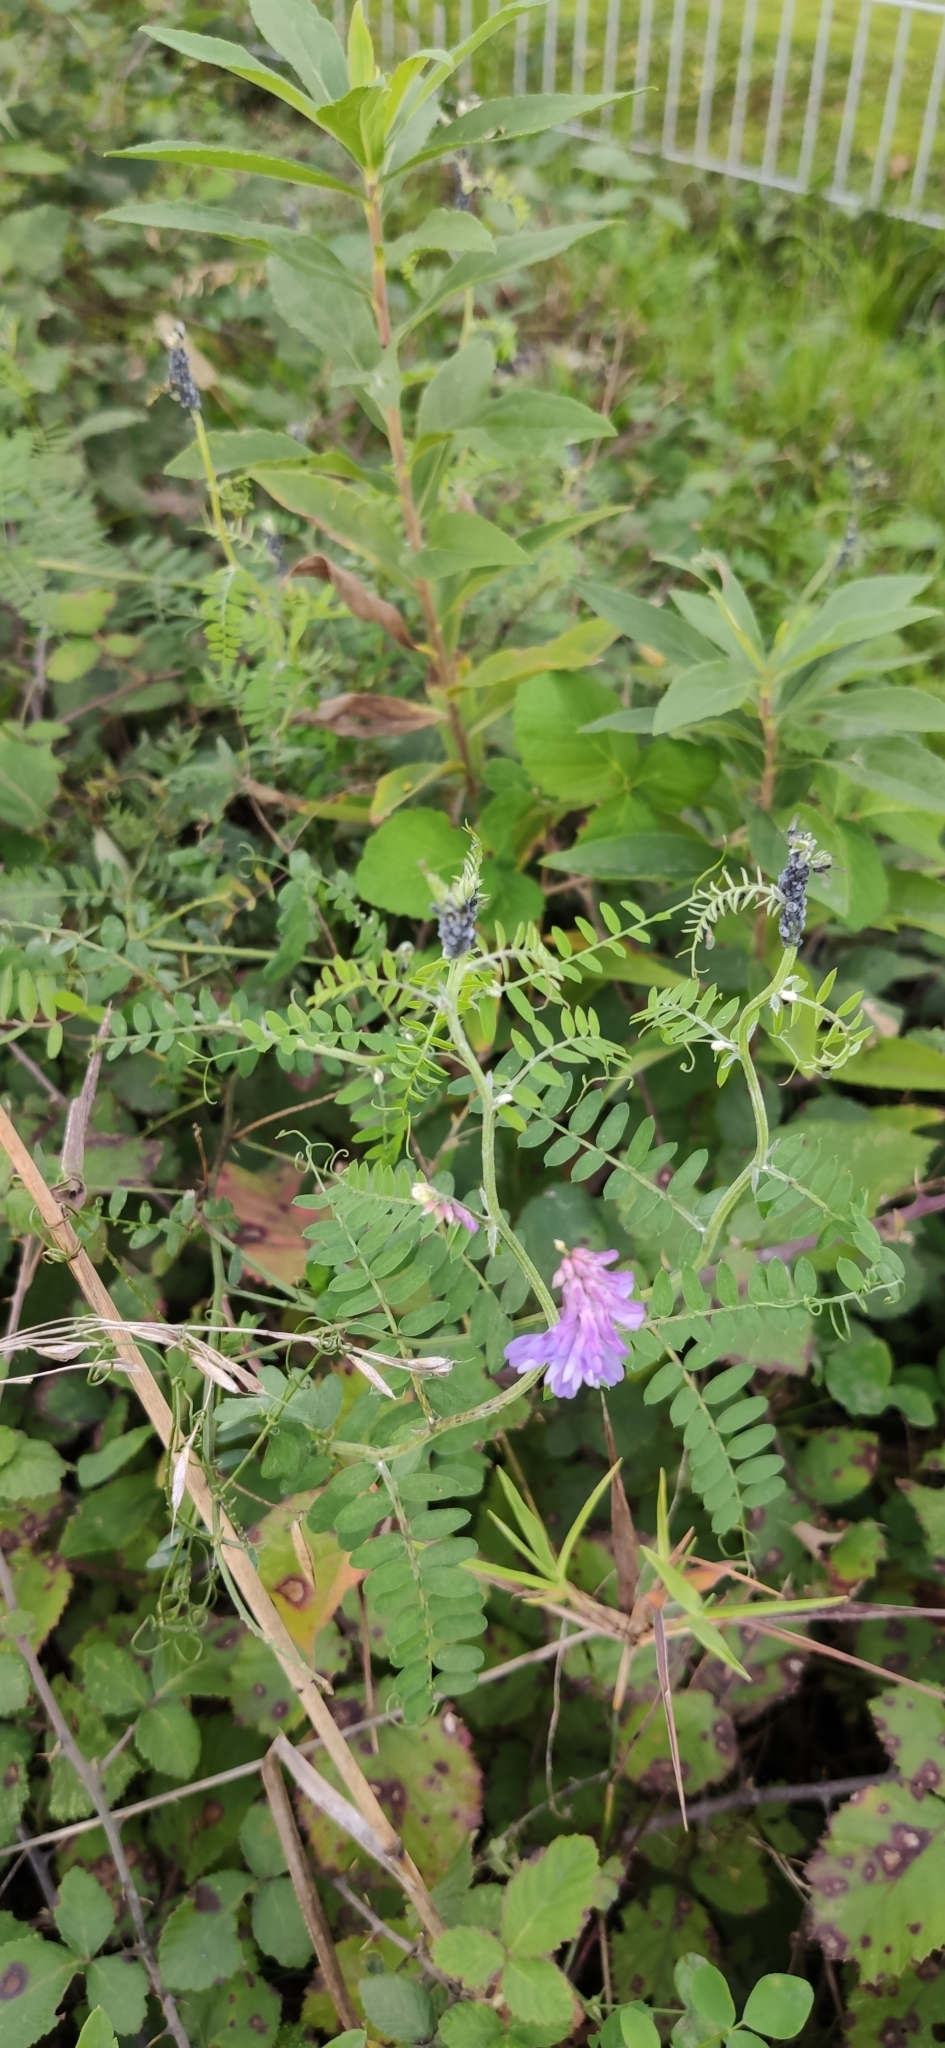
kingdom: Plantae
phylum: Tracheophyta
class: Magnoliopsida
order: Fabales
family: Fabaceae
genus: Vicia
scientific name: Vicia cracca
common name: Bird vetch
